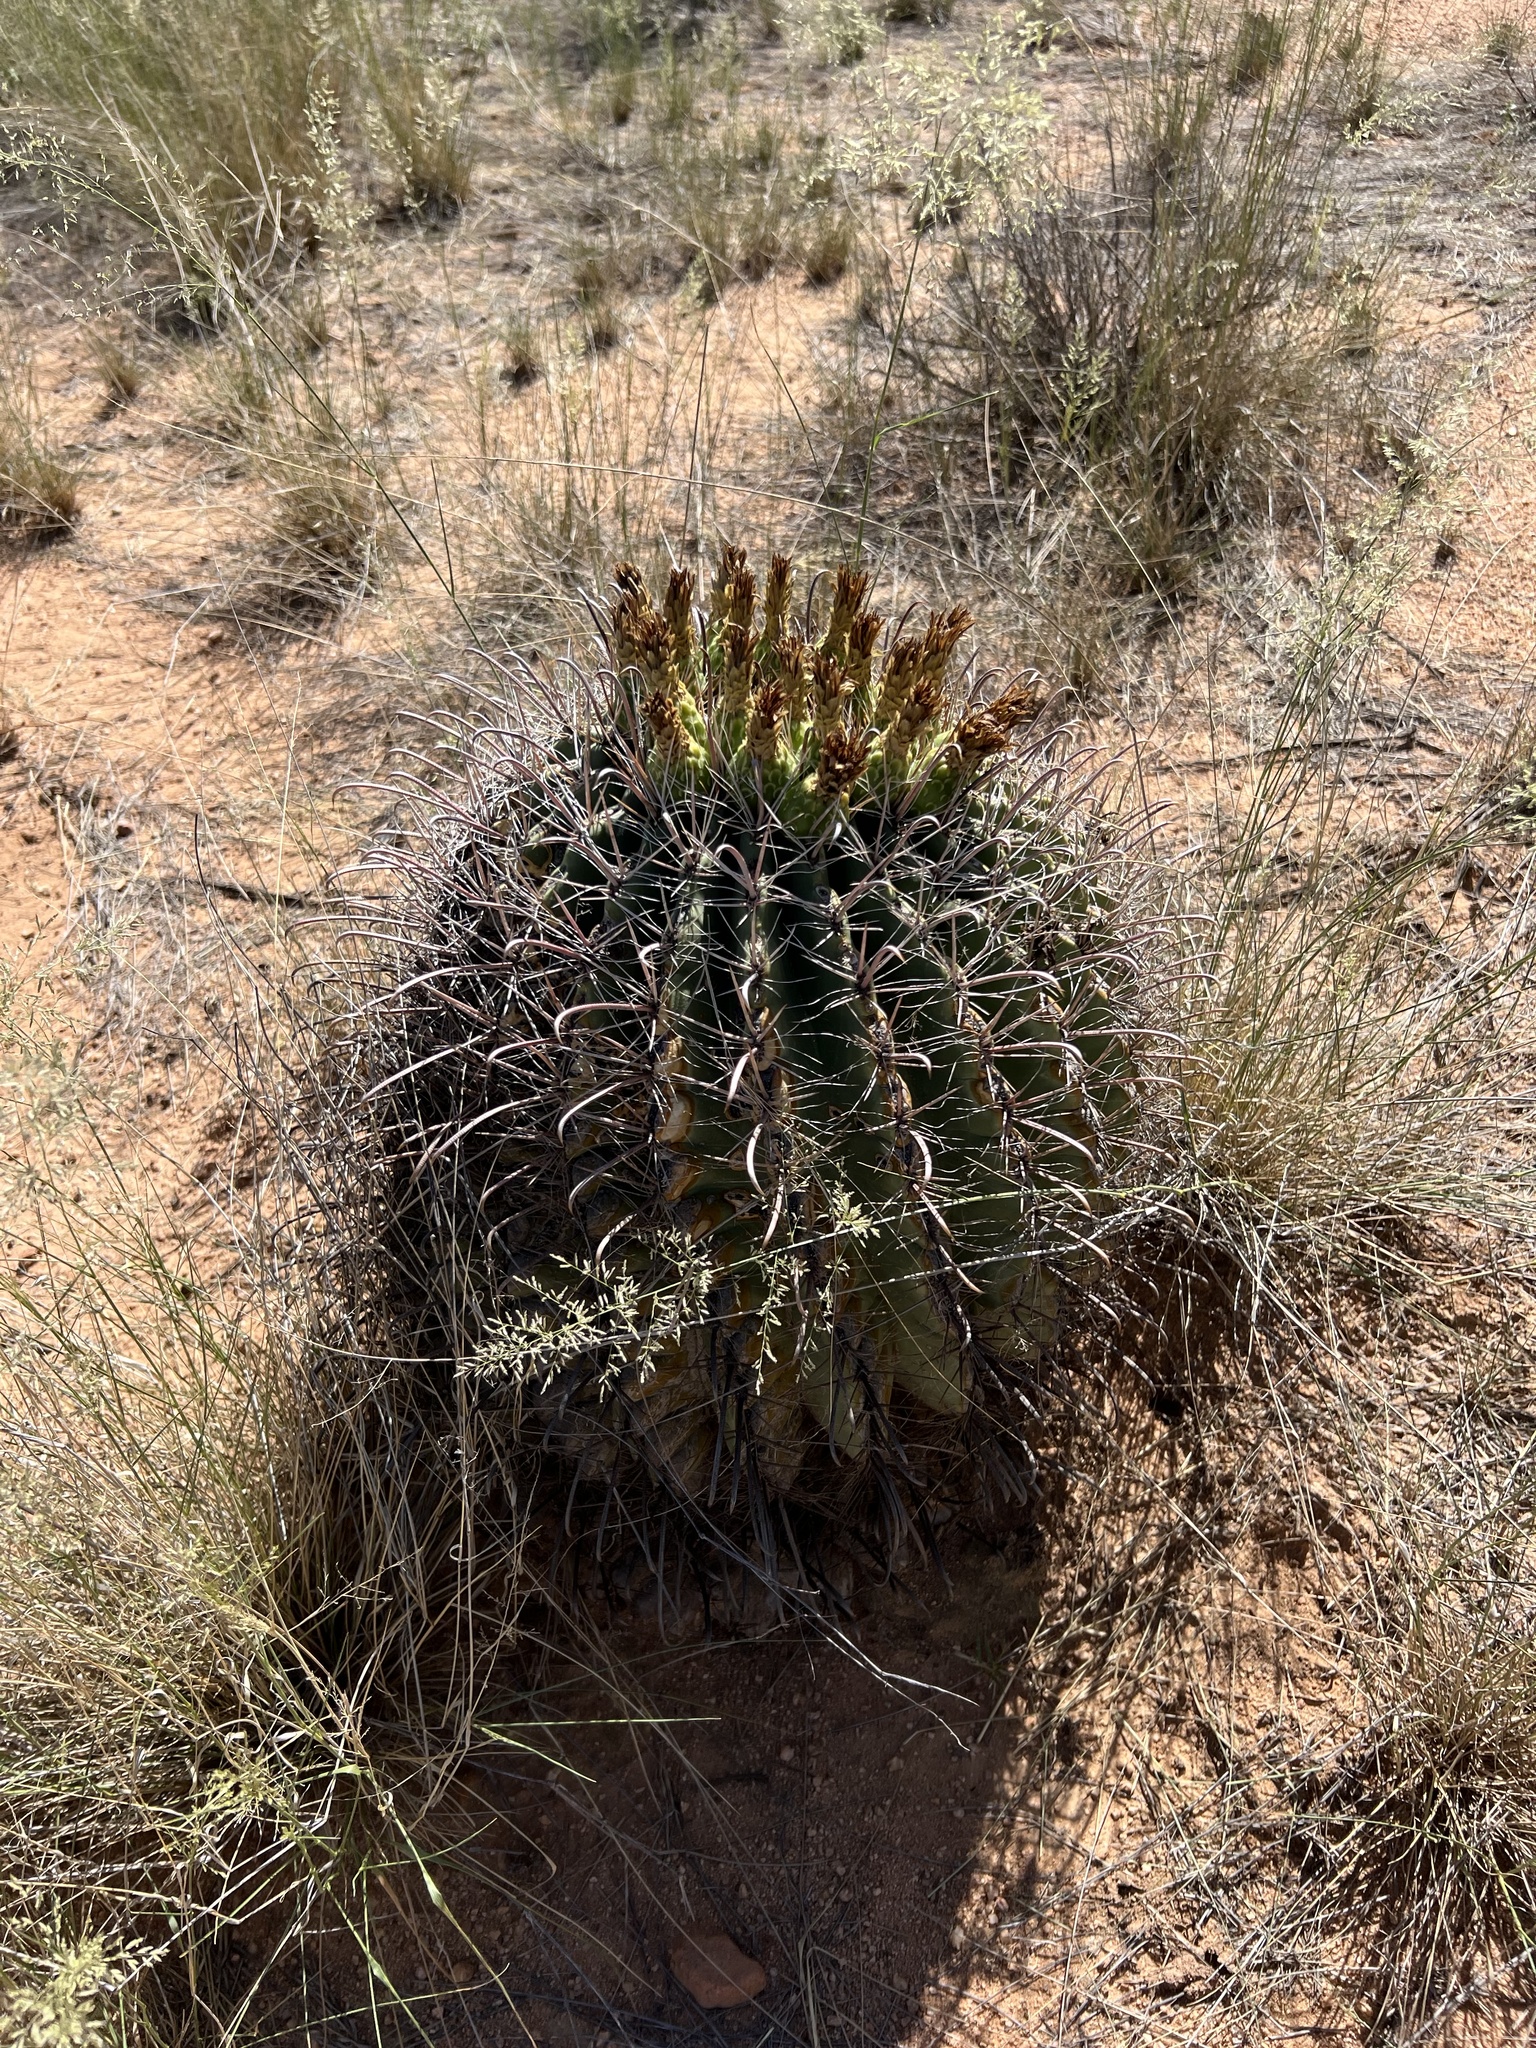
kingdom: Plantae
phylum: Tracheophyta
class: Magnoliopsida
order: Caryophyllales
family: Cactaceae
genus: Ferocactus
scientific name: Ferocactus wislizeni
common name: Candy barrel cactus
